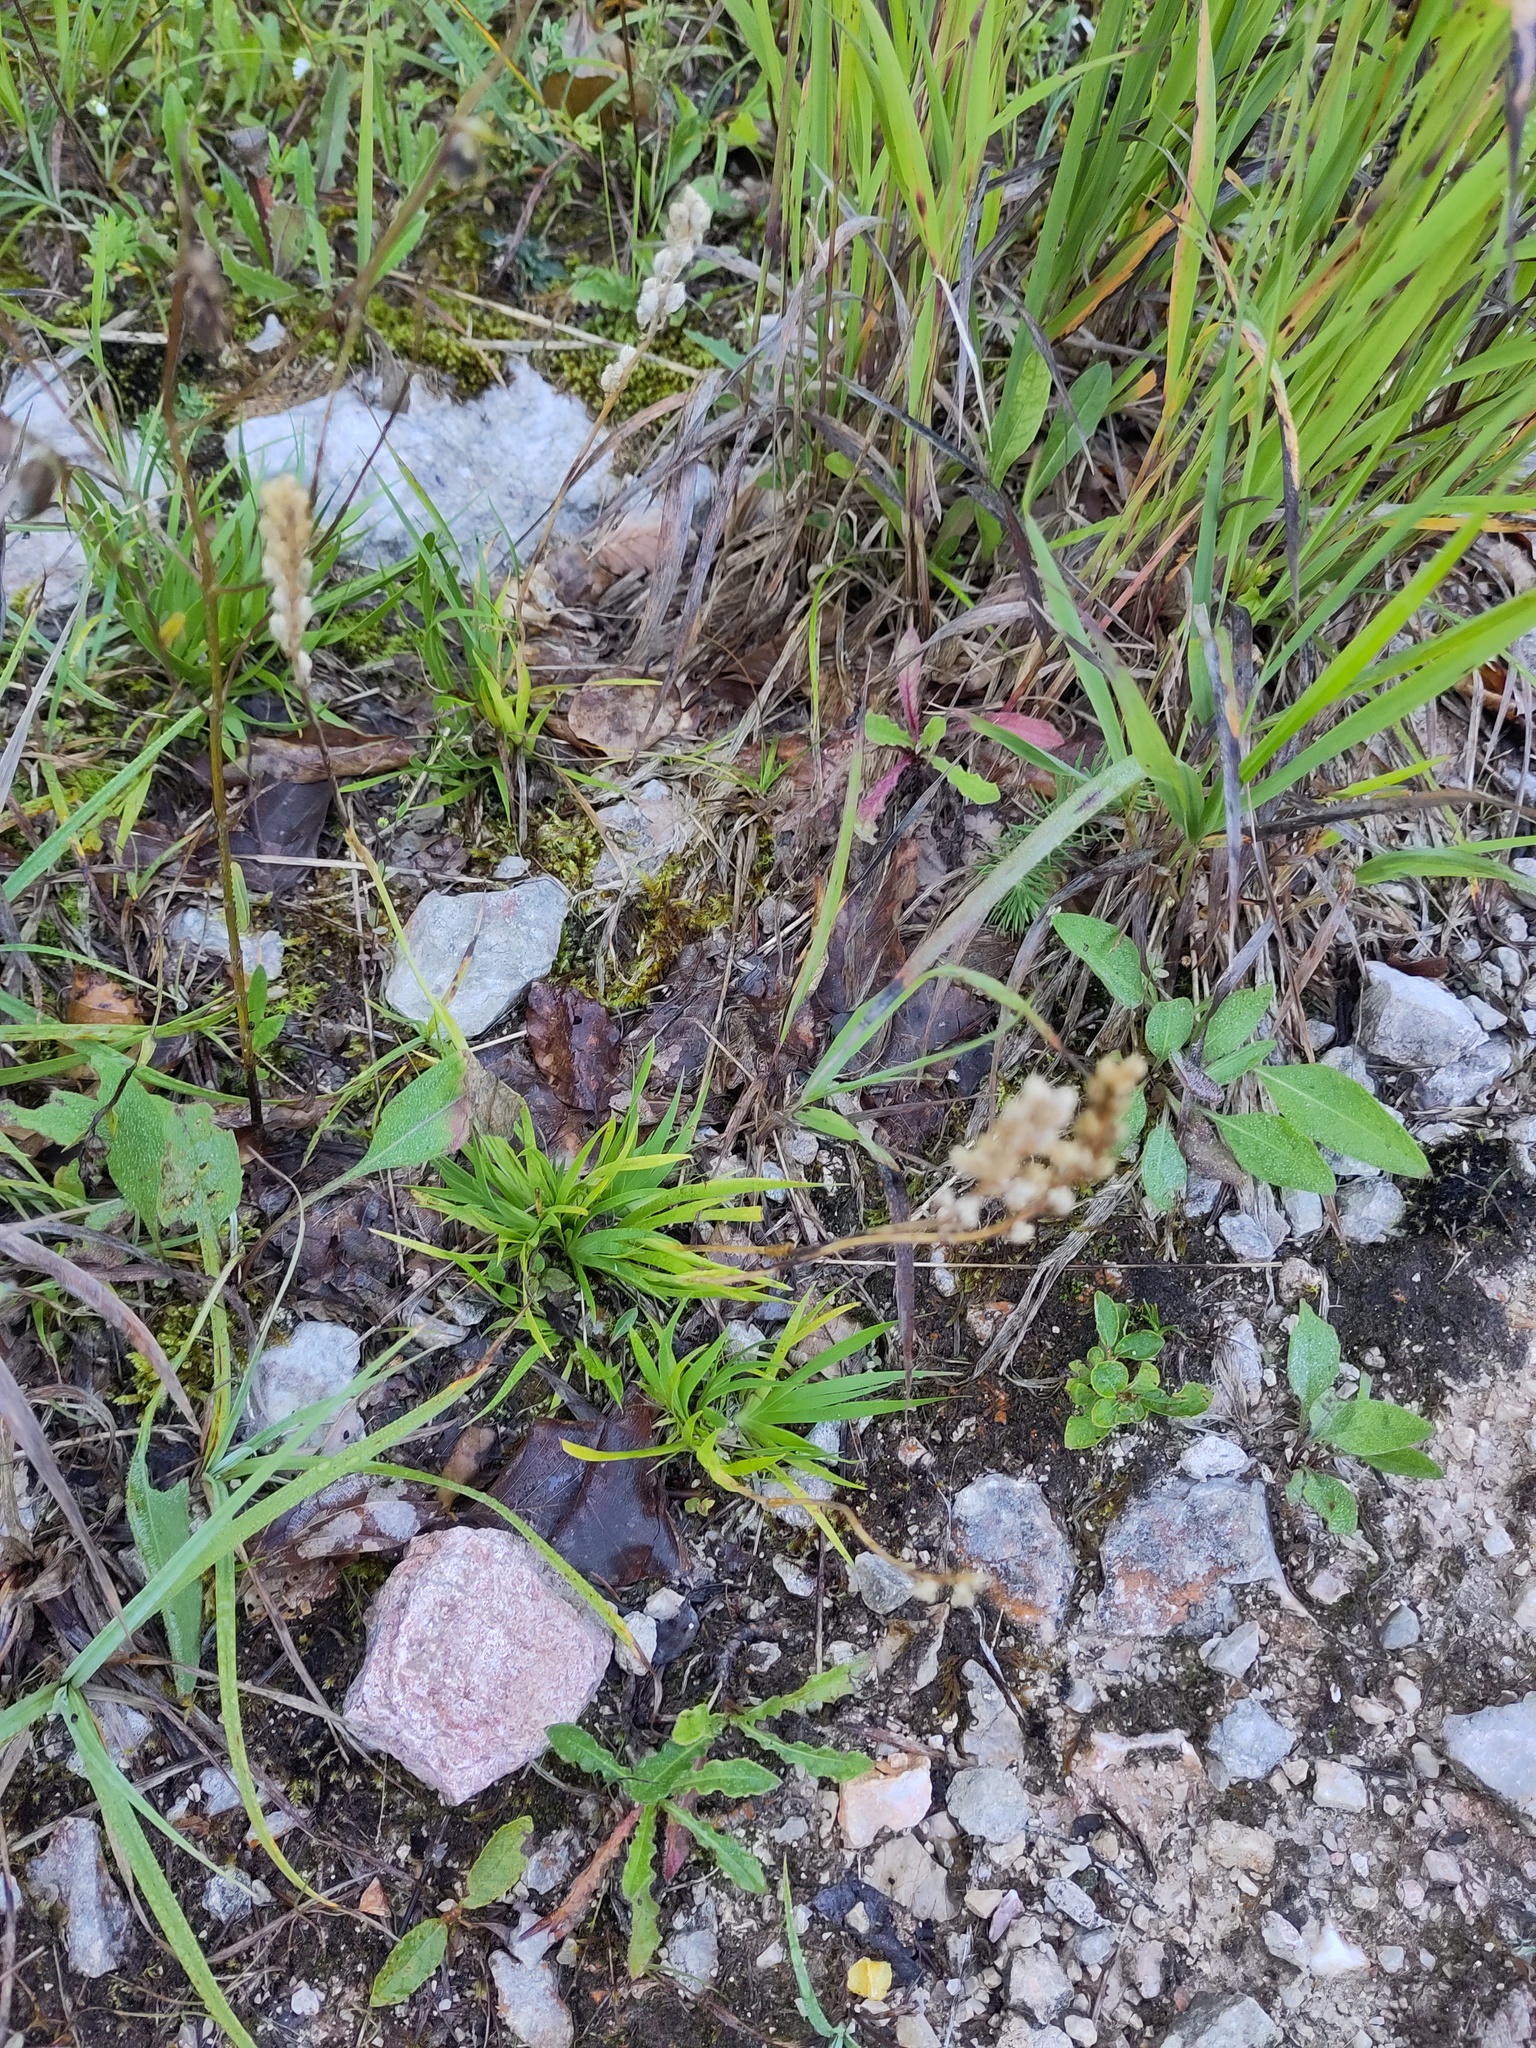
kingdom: Plantae
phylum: Tracheophyta
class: Liliopsida
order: Alismatales
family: Tofieldiaceae
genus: Tofieldia
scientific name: Tofieldia calyculata
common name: German-asphodel
